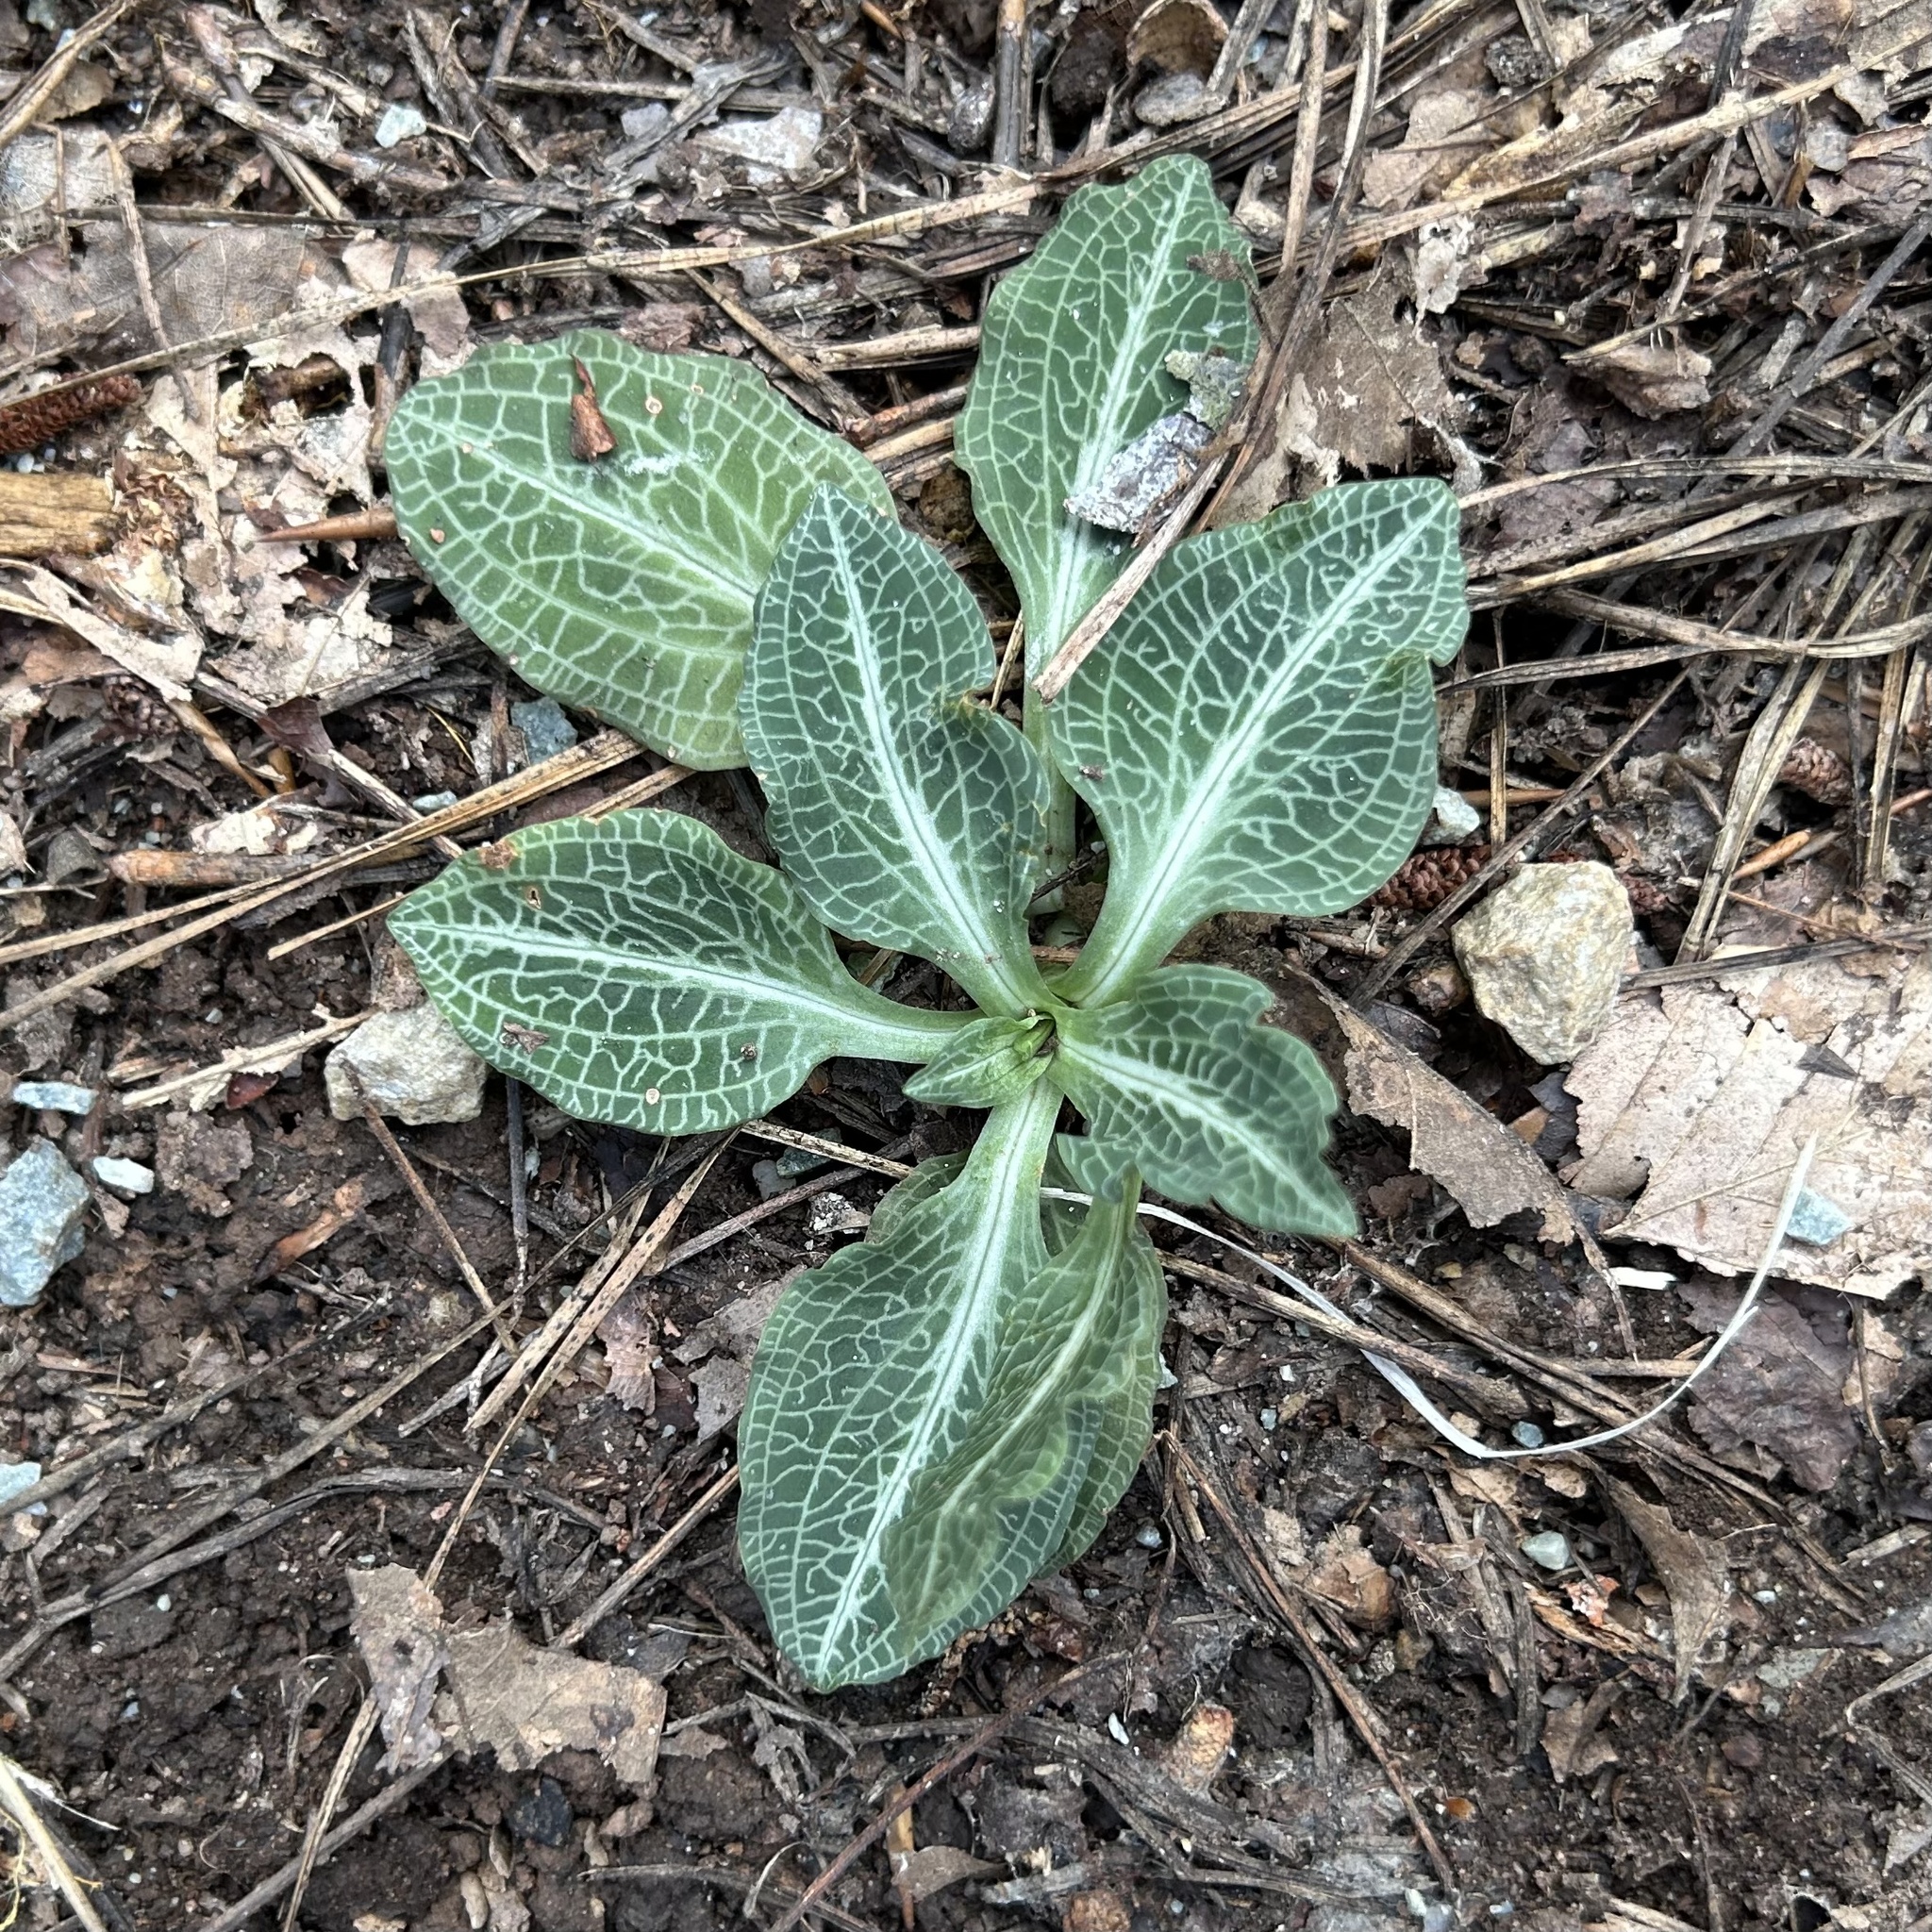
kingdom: Plantae
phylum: Tracheophyta
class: Liliopsida
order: Asparagales
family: Orchidaceae
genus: Goodyera
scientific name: Goodyera pubescens
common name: Downy rattlesnake-plantain
